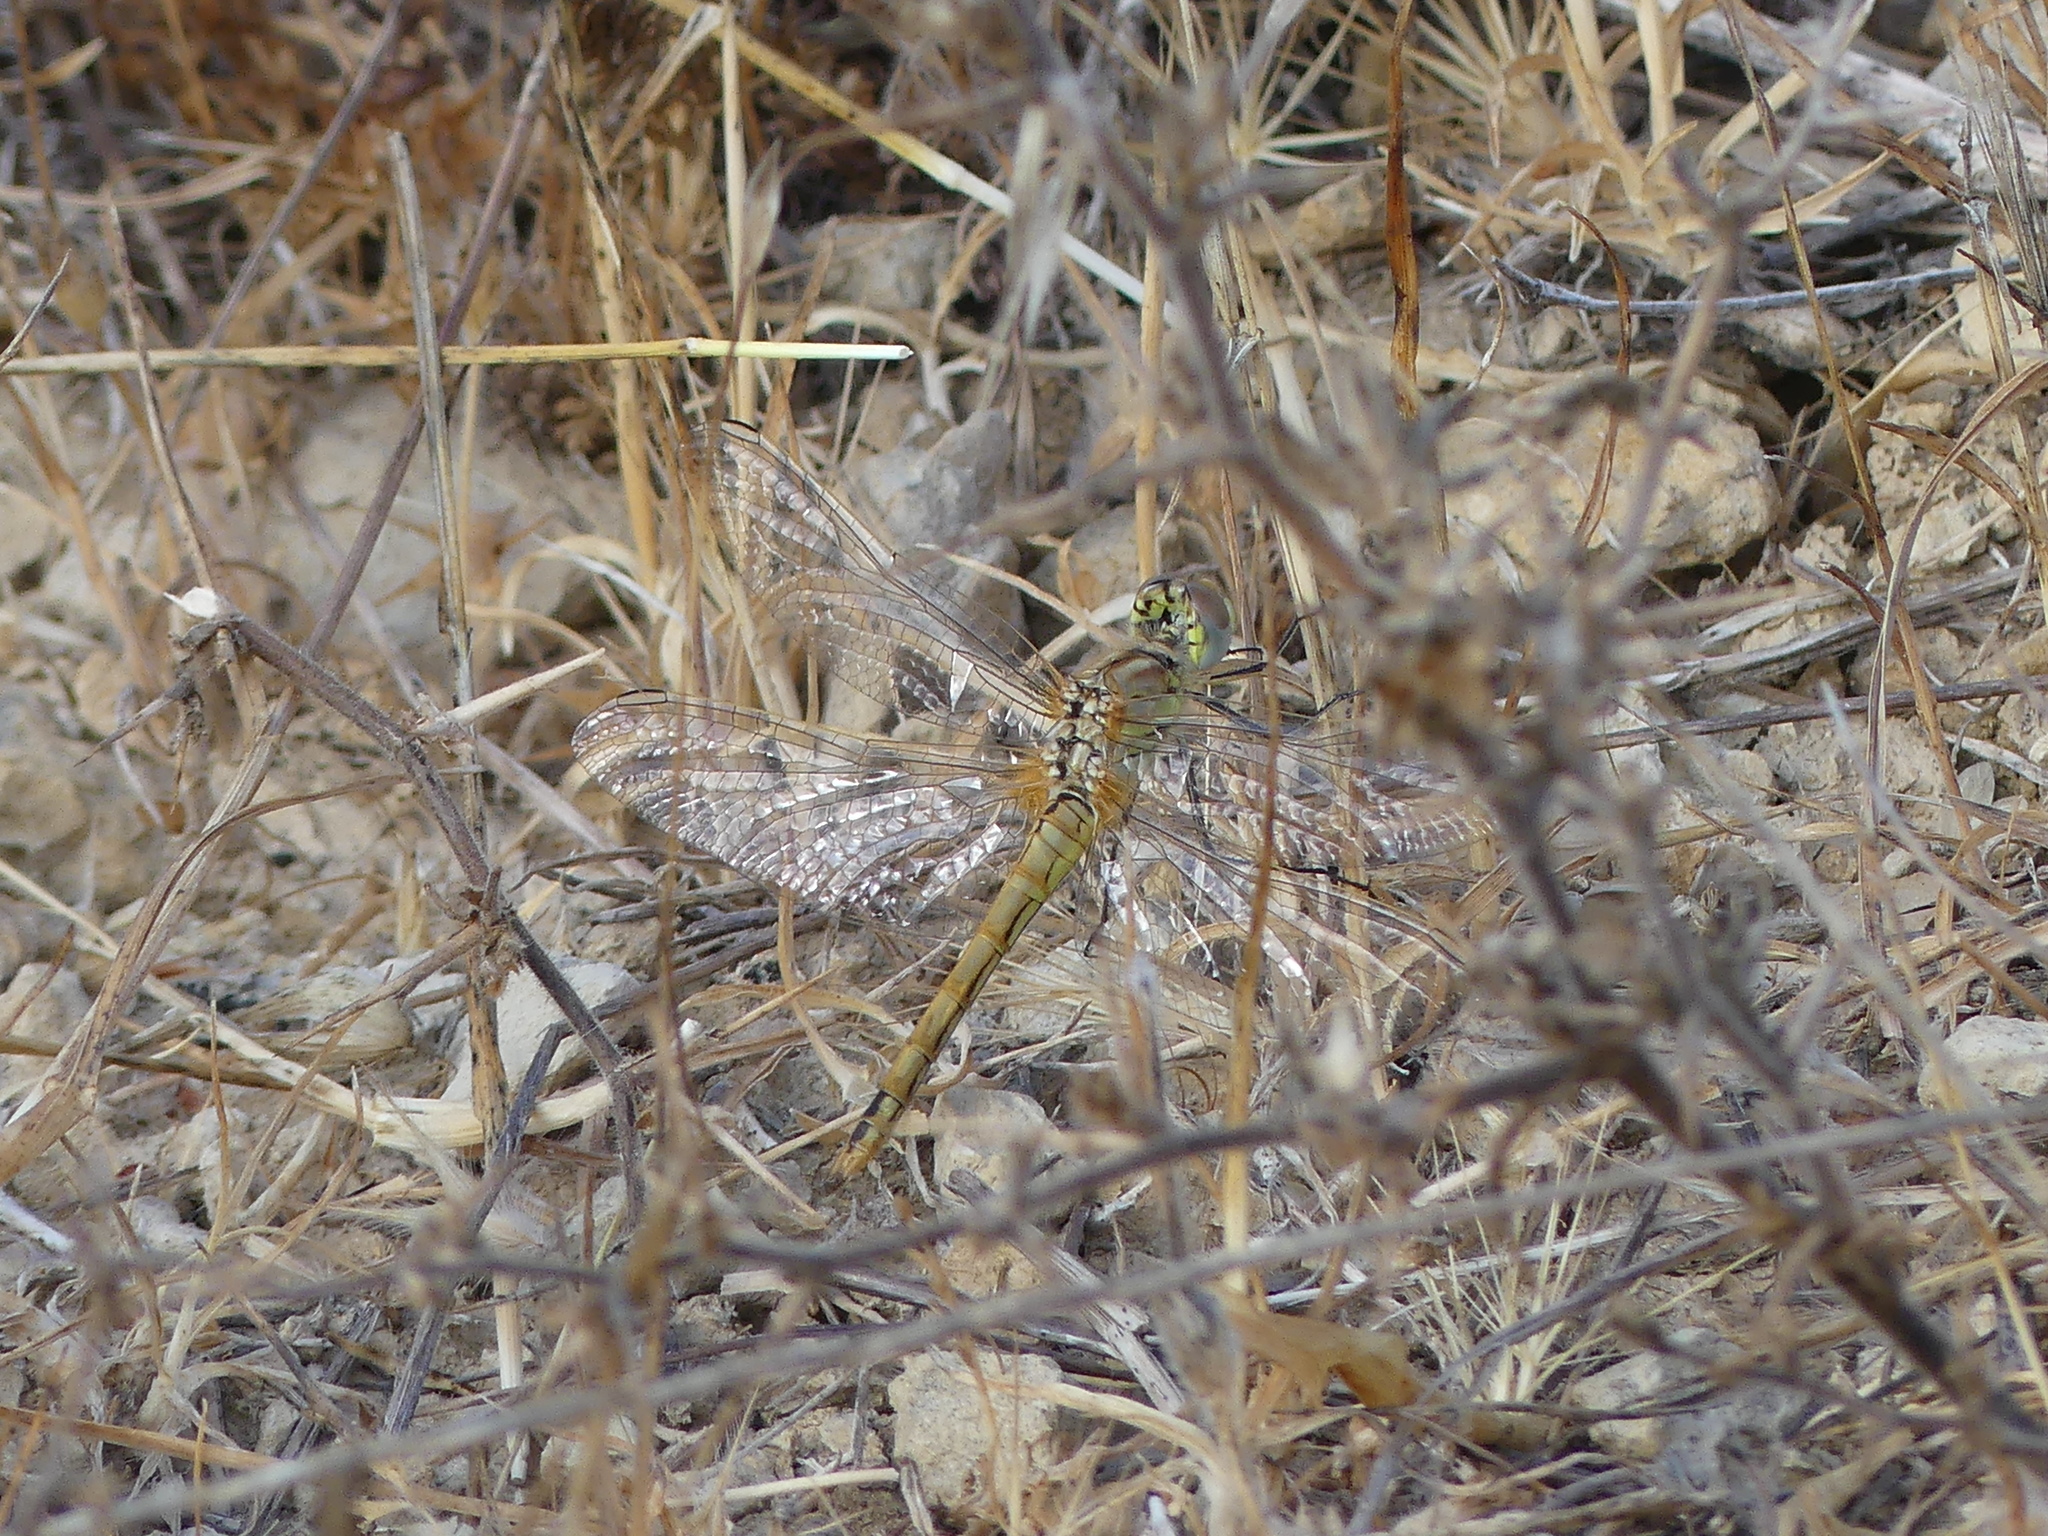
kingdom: Animalia
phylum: Arthropoda
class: Insecta
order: Odonata
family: Libellulidae
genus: Sympetrum
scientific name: Sympetrum fonscolombii
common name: Red-veined darter
